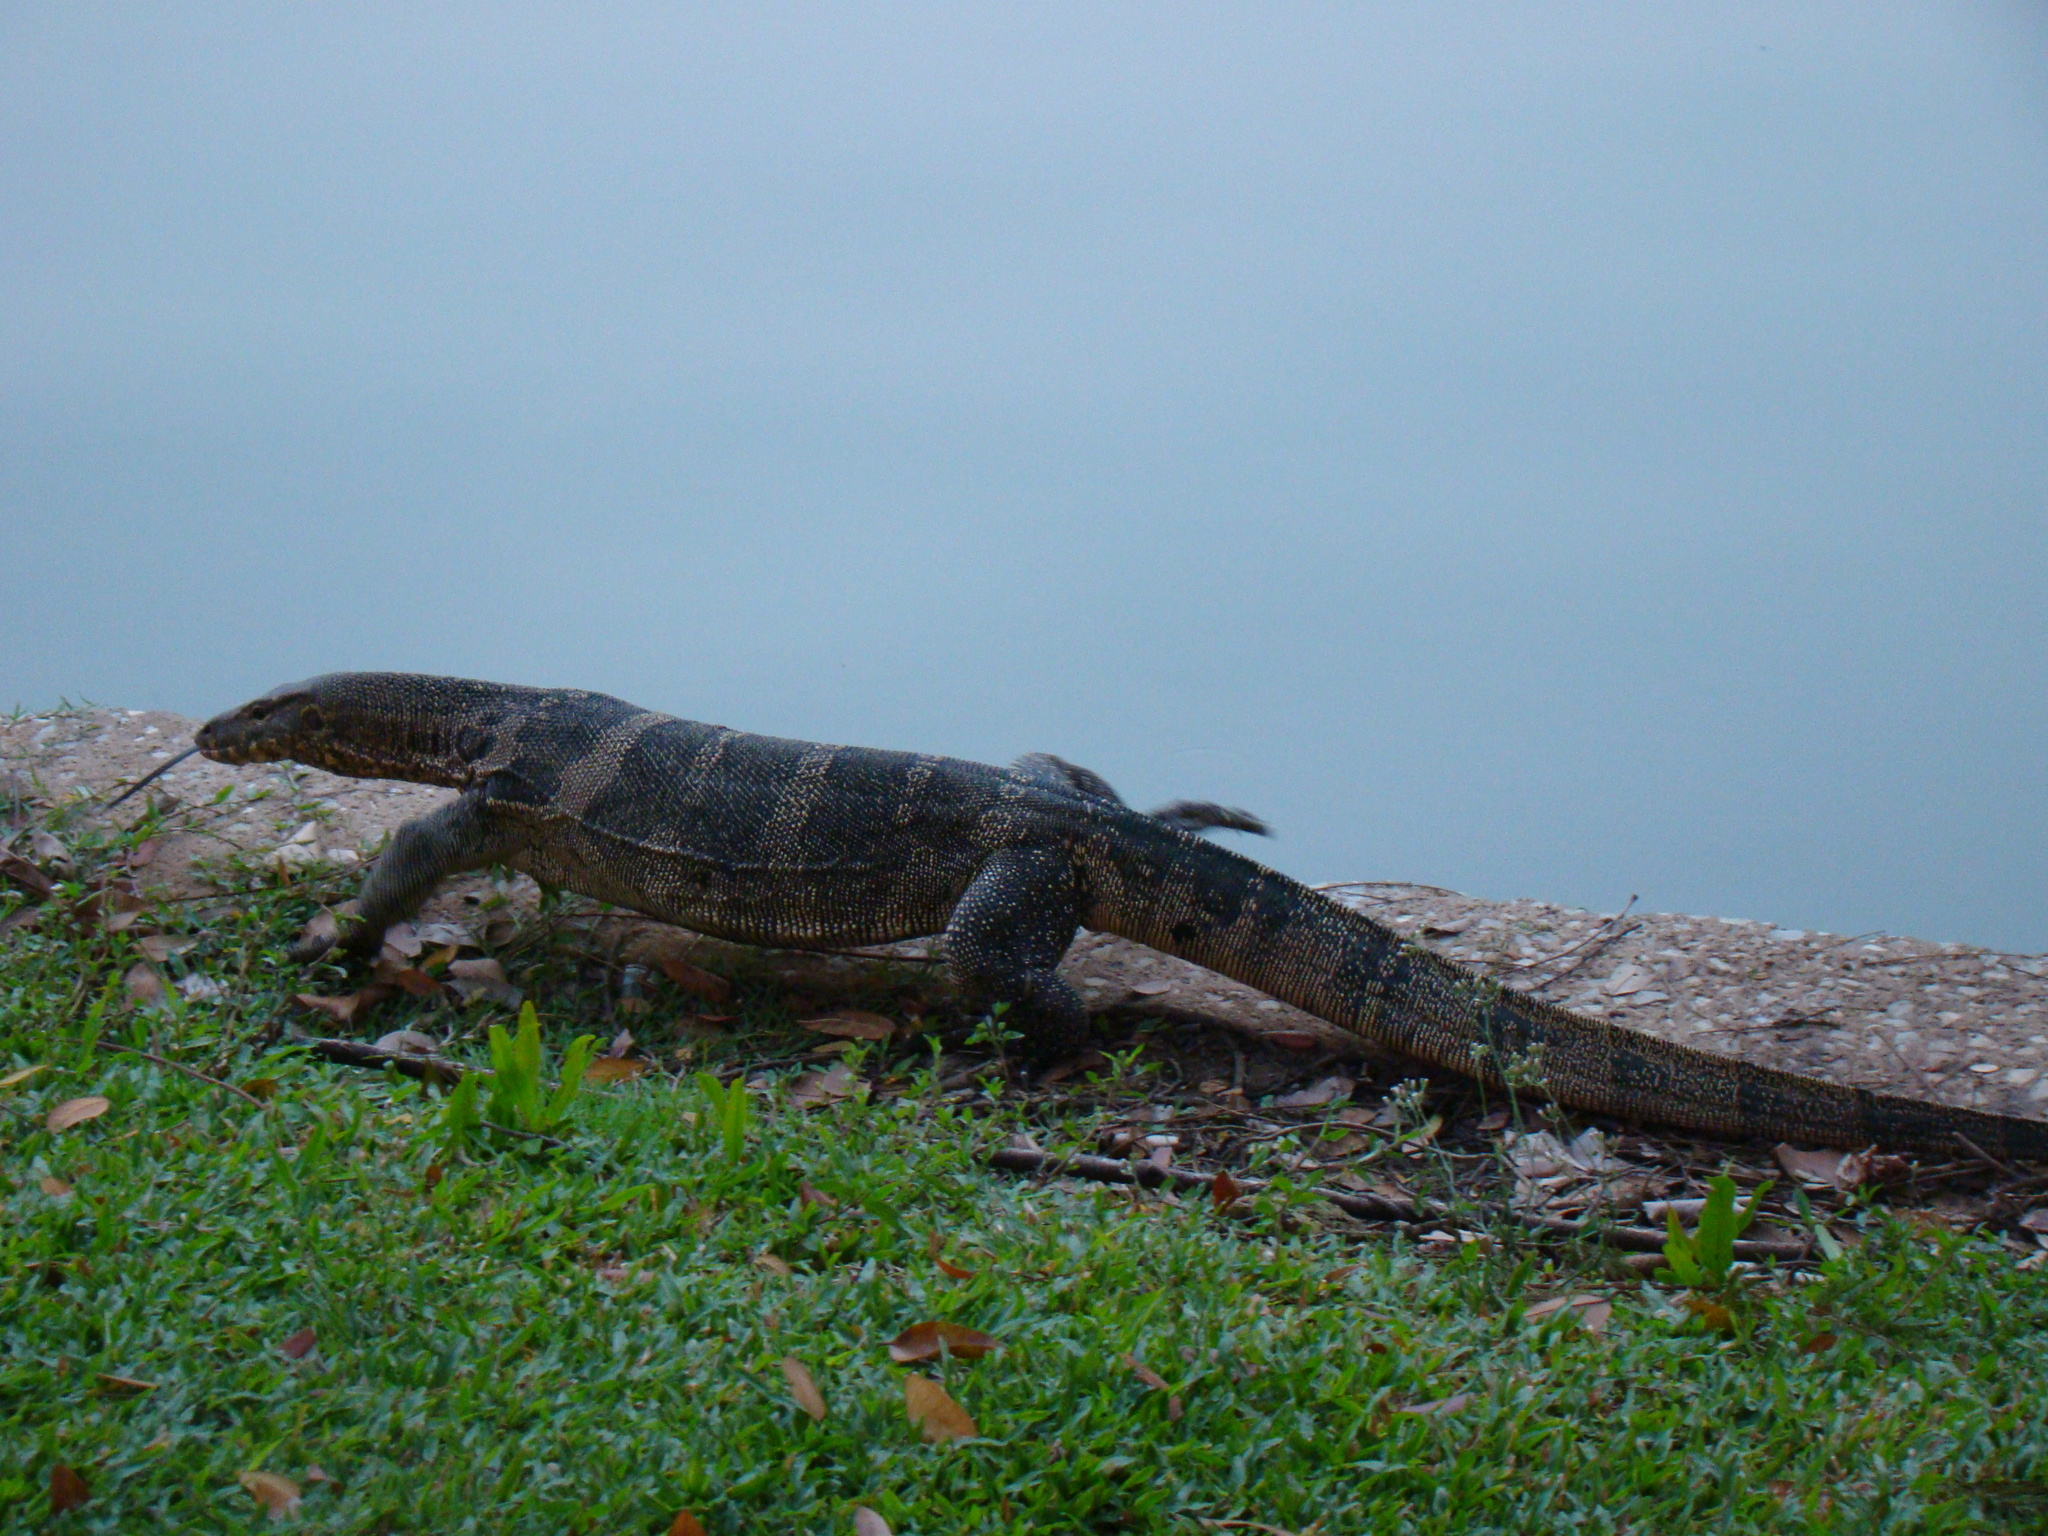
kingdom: Animalia
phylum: Chordata
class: Squamata
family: Varanidae
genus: Varanus
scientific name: Varanus salvator
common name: Common water monitor
